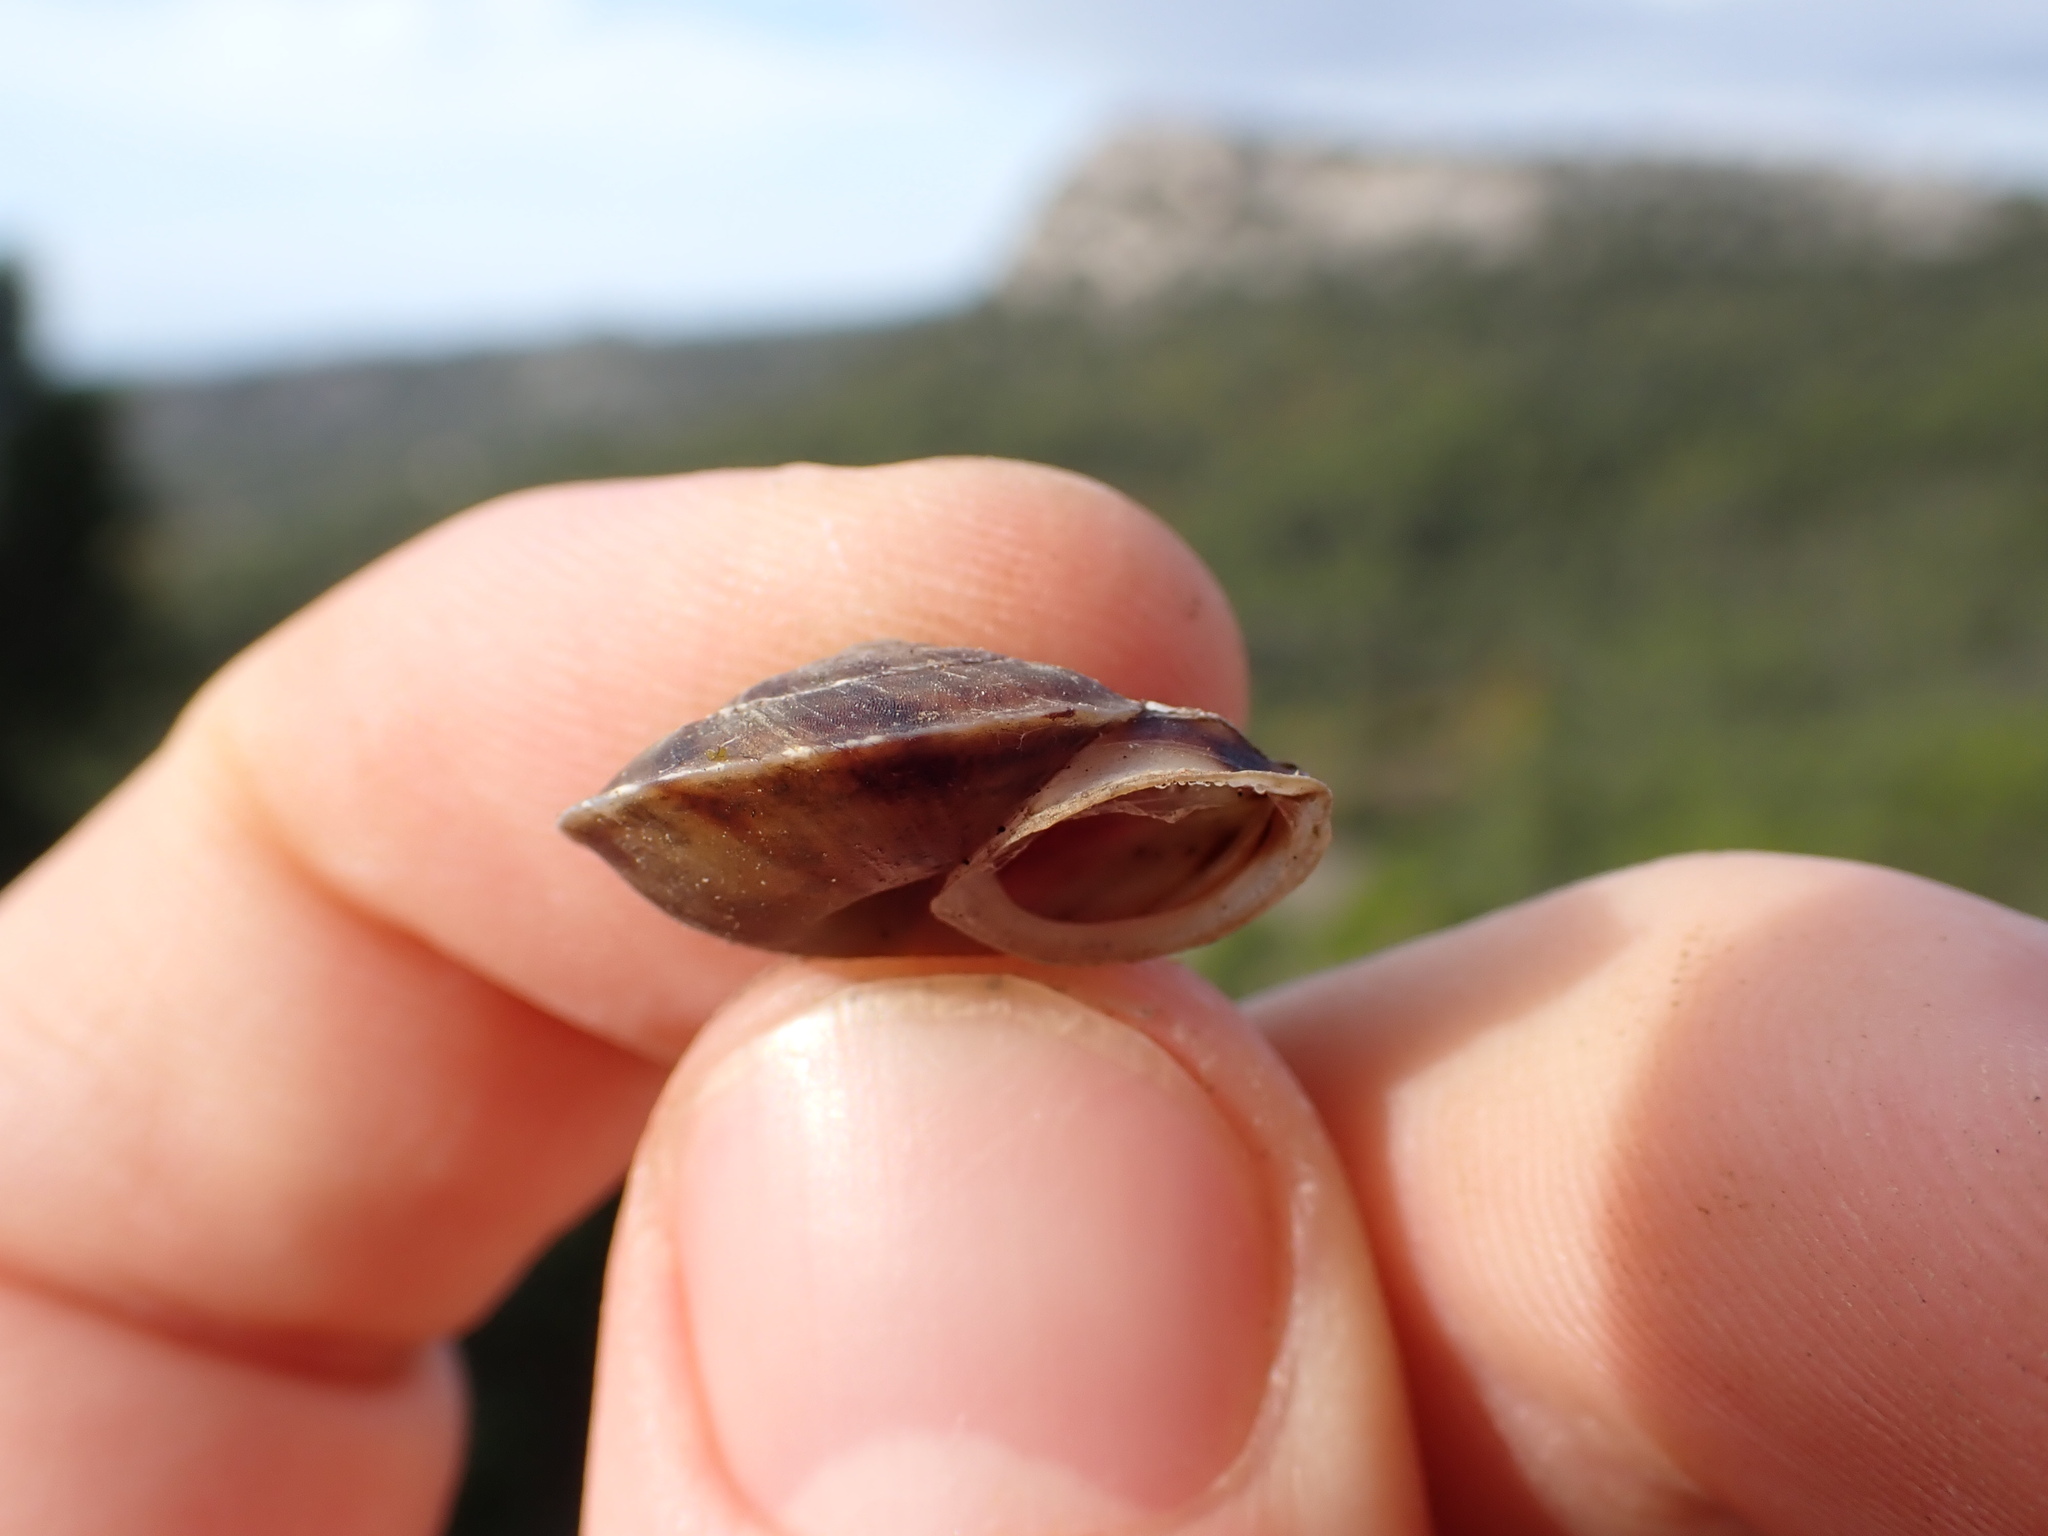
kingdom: Animalia
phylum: Mollusca
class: Gastropoda
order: Stylommatophora
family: Helicidae
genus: Helicigona
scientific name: Helicigona lapicida
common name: Lapidary snail
